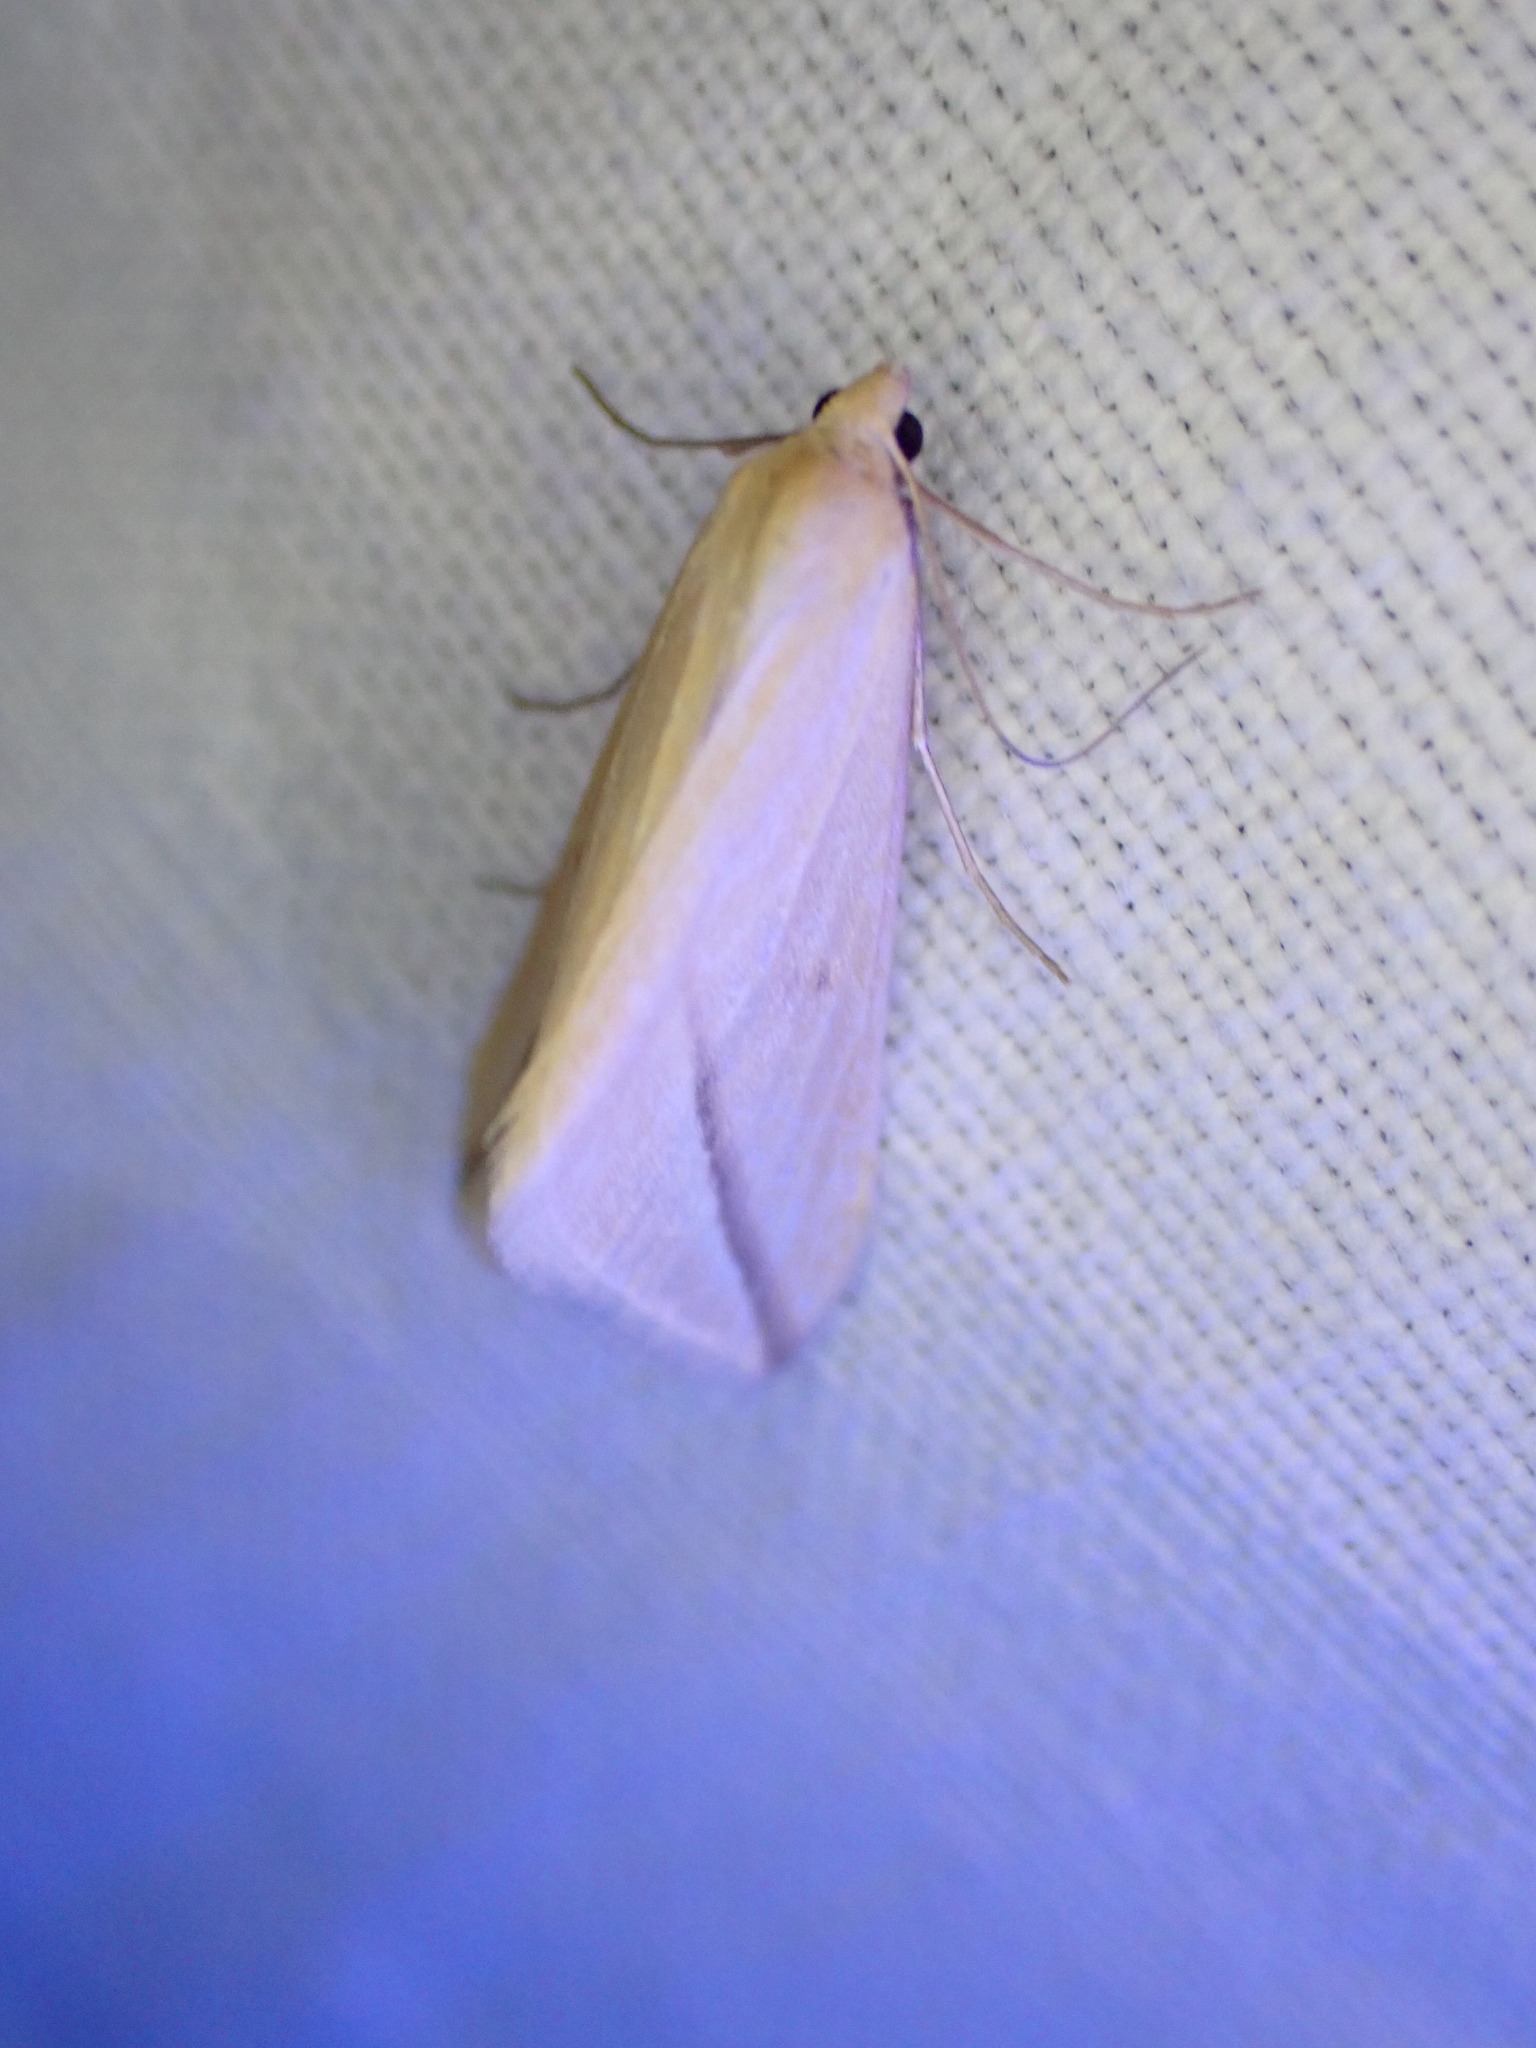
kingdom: Animalia
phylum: Arthropoda
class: Insecta
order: Lepidoptera
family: Geometridae
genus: Rhodometra
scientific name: Rhodometra sacraria
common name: Vestal
